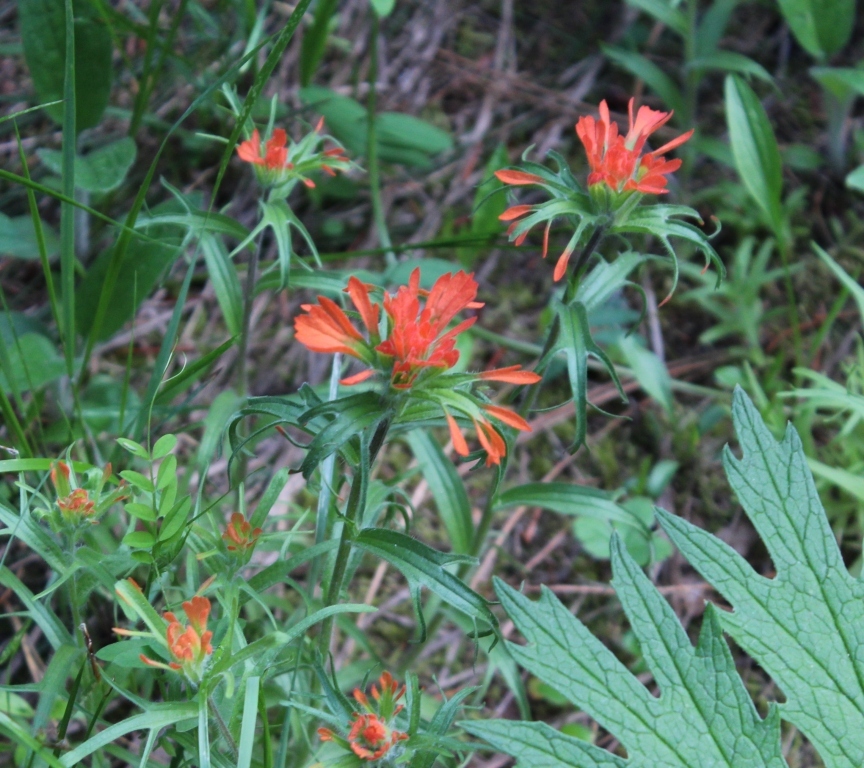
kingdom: Plantae
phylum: Tracheophyta
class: Magnoliopsida
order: Lamiales
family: Orobanchaceae
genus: Castilleja
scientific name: Castilleja hispida
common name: Bristly paintbrush
